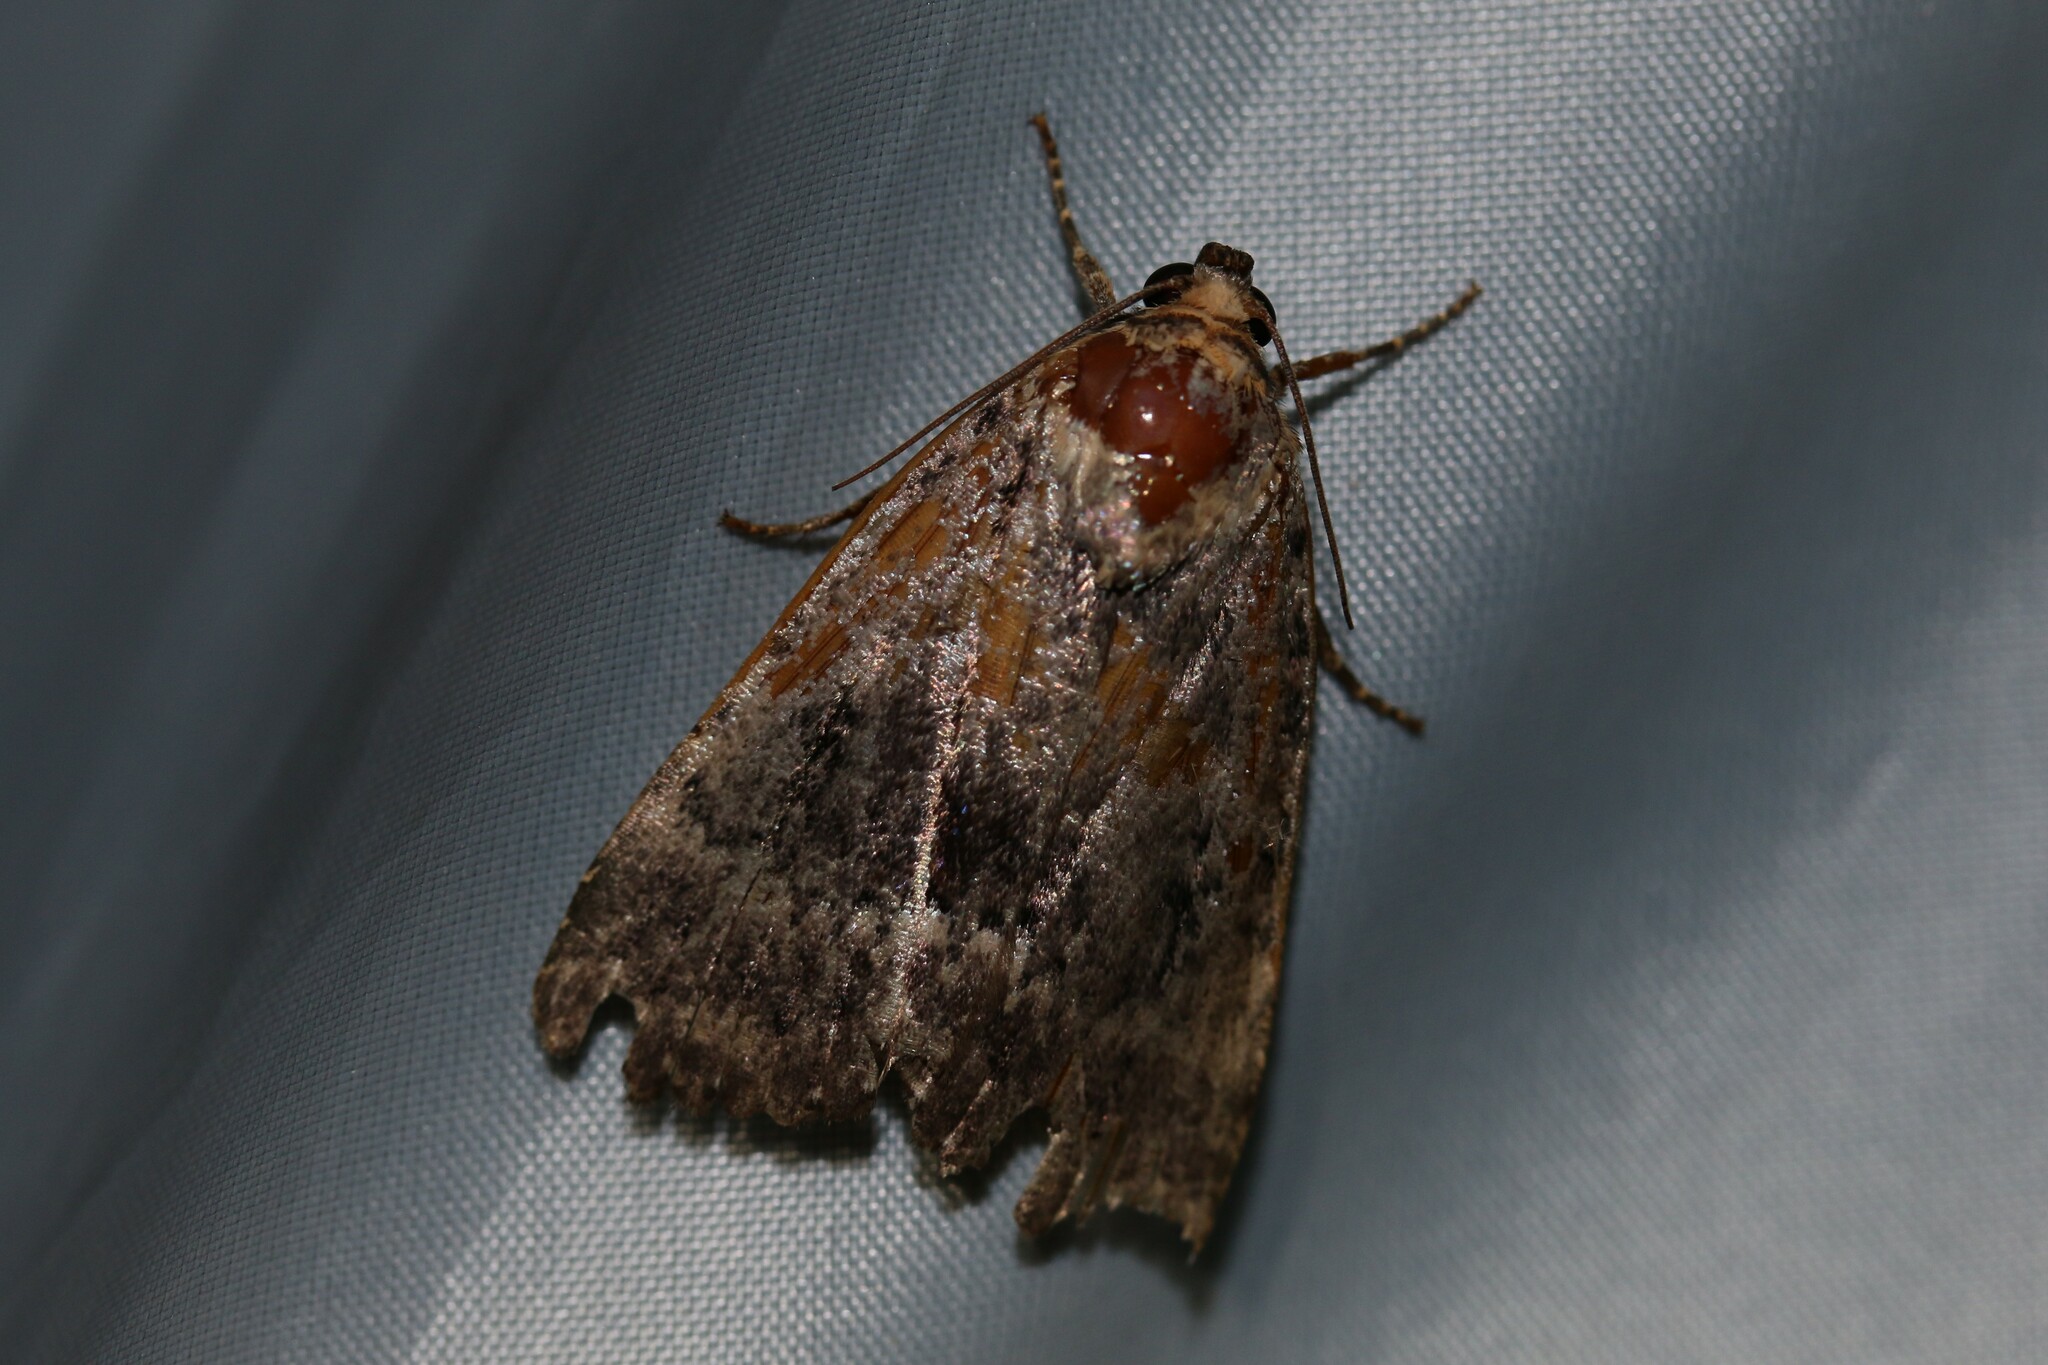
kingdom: Animalia
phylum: Arthropoda
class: Insecta
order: Lepidoptera
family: Noctuidae
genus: Amphipyra
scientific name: Amphipyra
